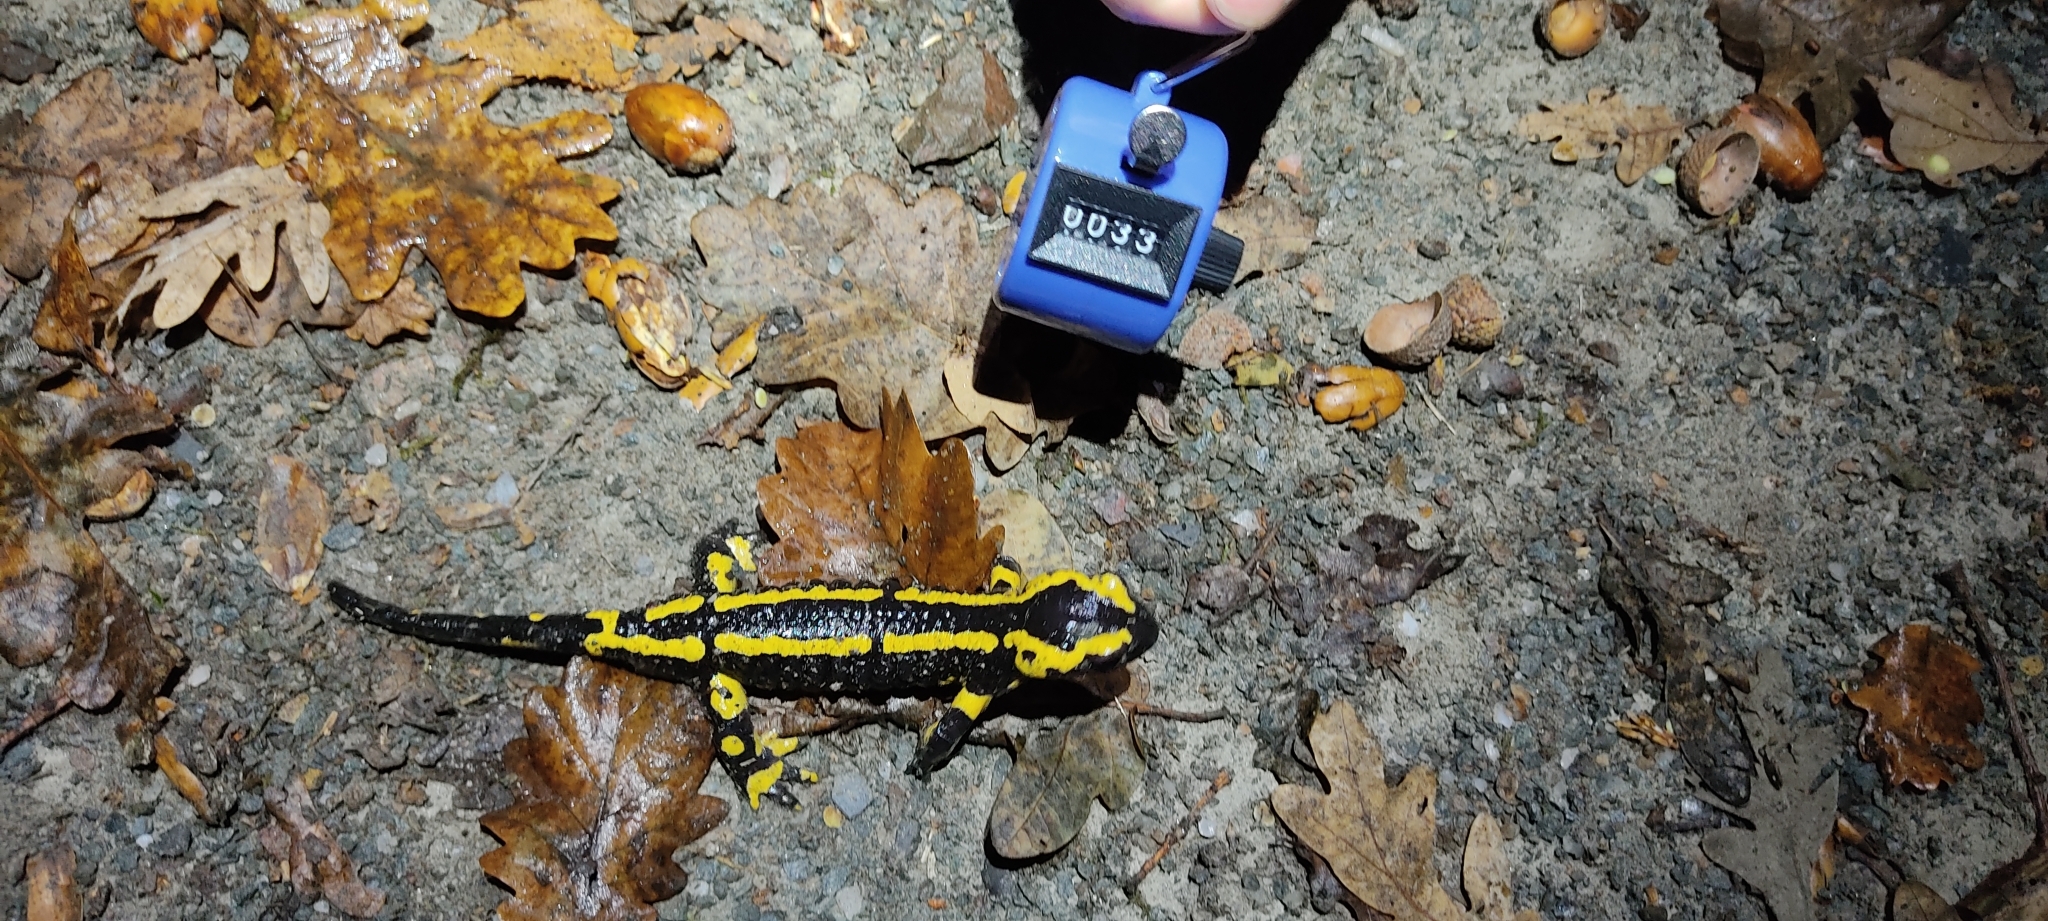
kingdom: Animalia
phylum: Chordata
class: Amphibia
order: Caudata
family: Salamandridae
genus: Salamandra
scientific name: Salamandra salamandra
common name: Fire salamander
